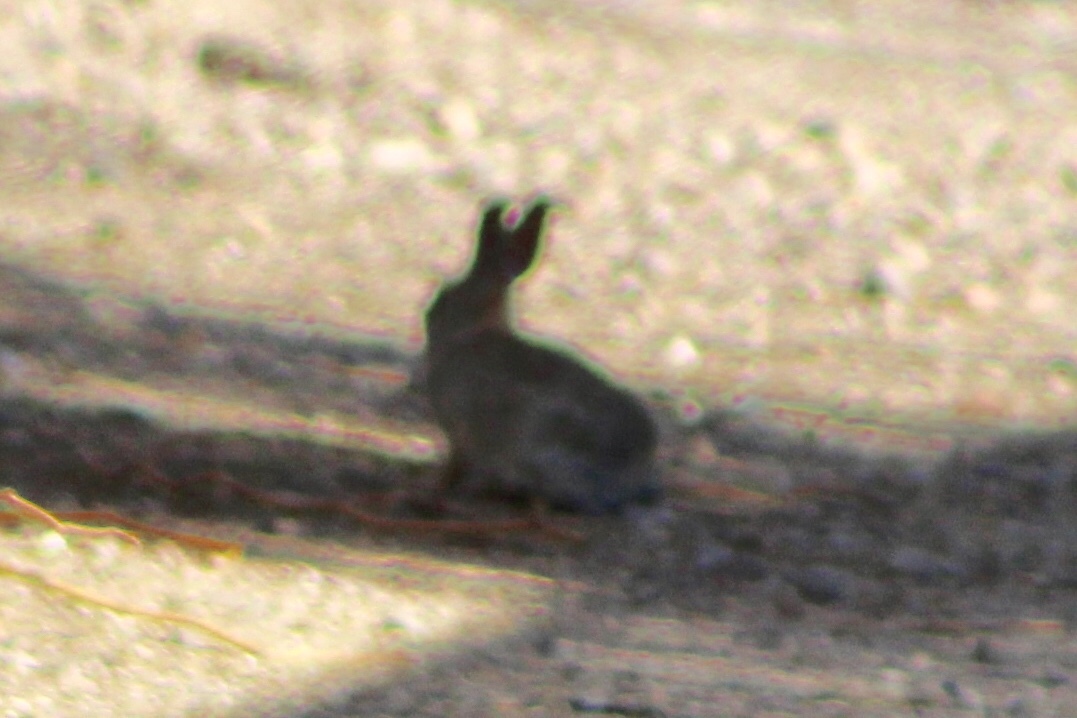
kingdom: Animalia
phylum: Chordata
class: Mammalia
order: Lagomorpha
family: Leporidae
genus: Sylvilagus
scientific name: Sylvilagus audubonii
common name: Desert cottontail
